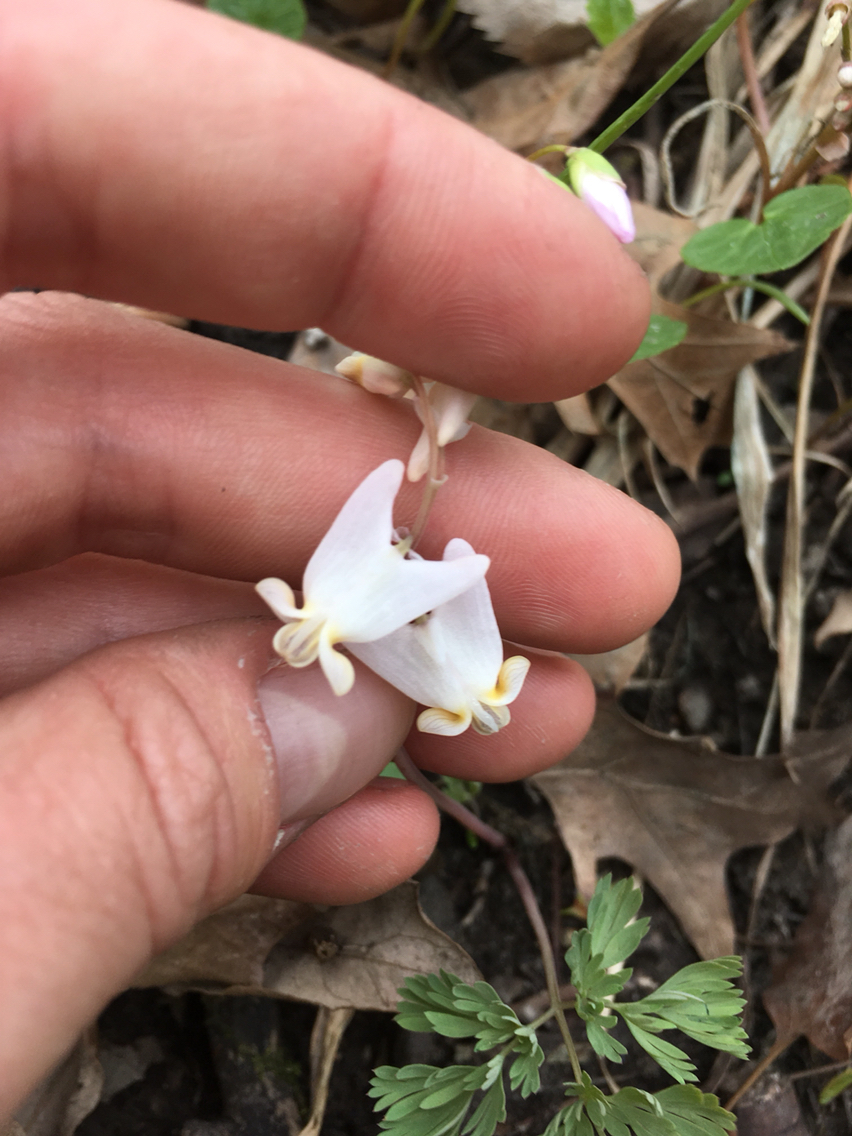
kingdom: Plantae
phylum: Tracheophyta
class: Magnoliopsida
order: Ranunculales
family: Papaveraceae
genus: Dicentra
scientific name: Dicentra cucullaria
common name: Dutchman's breeches
